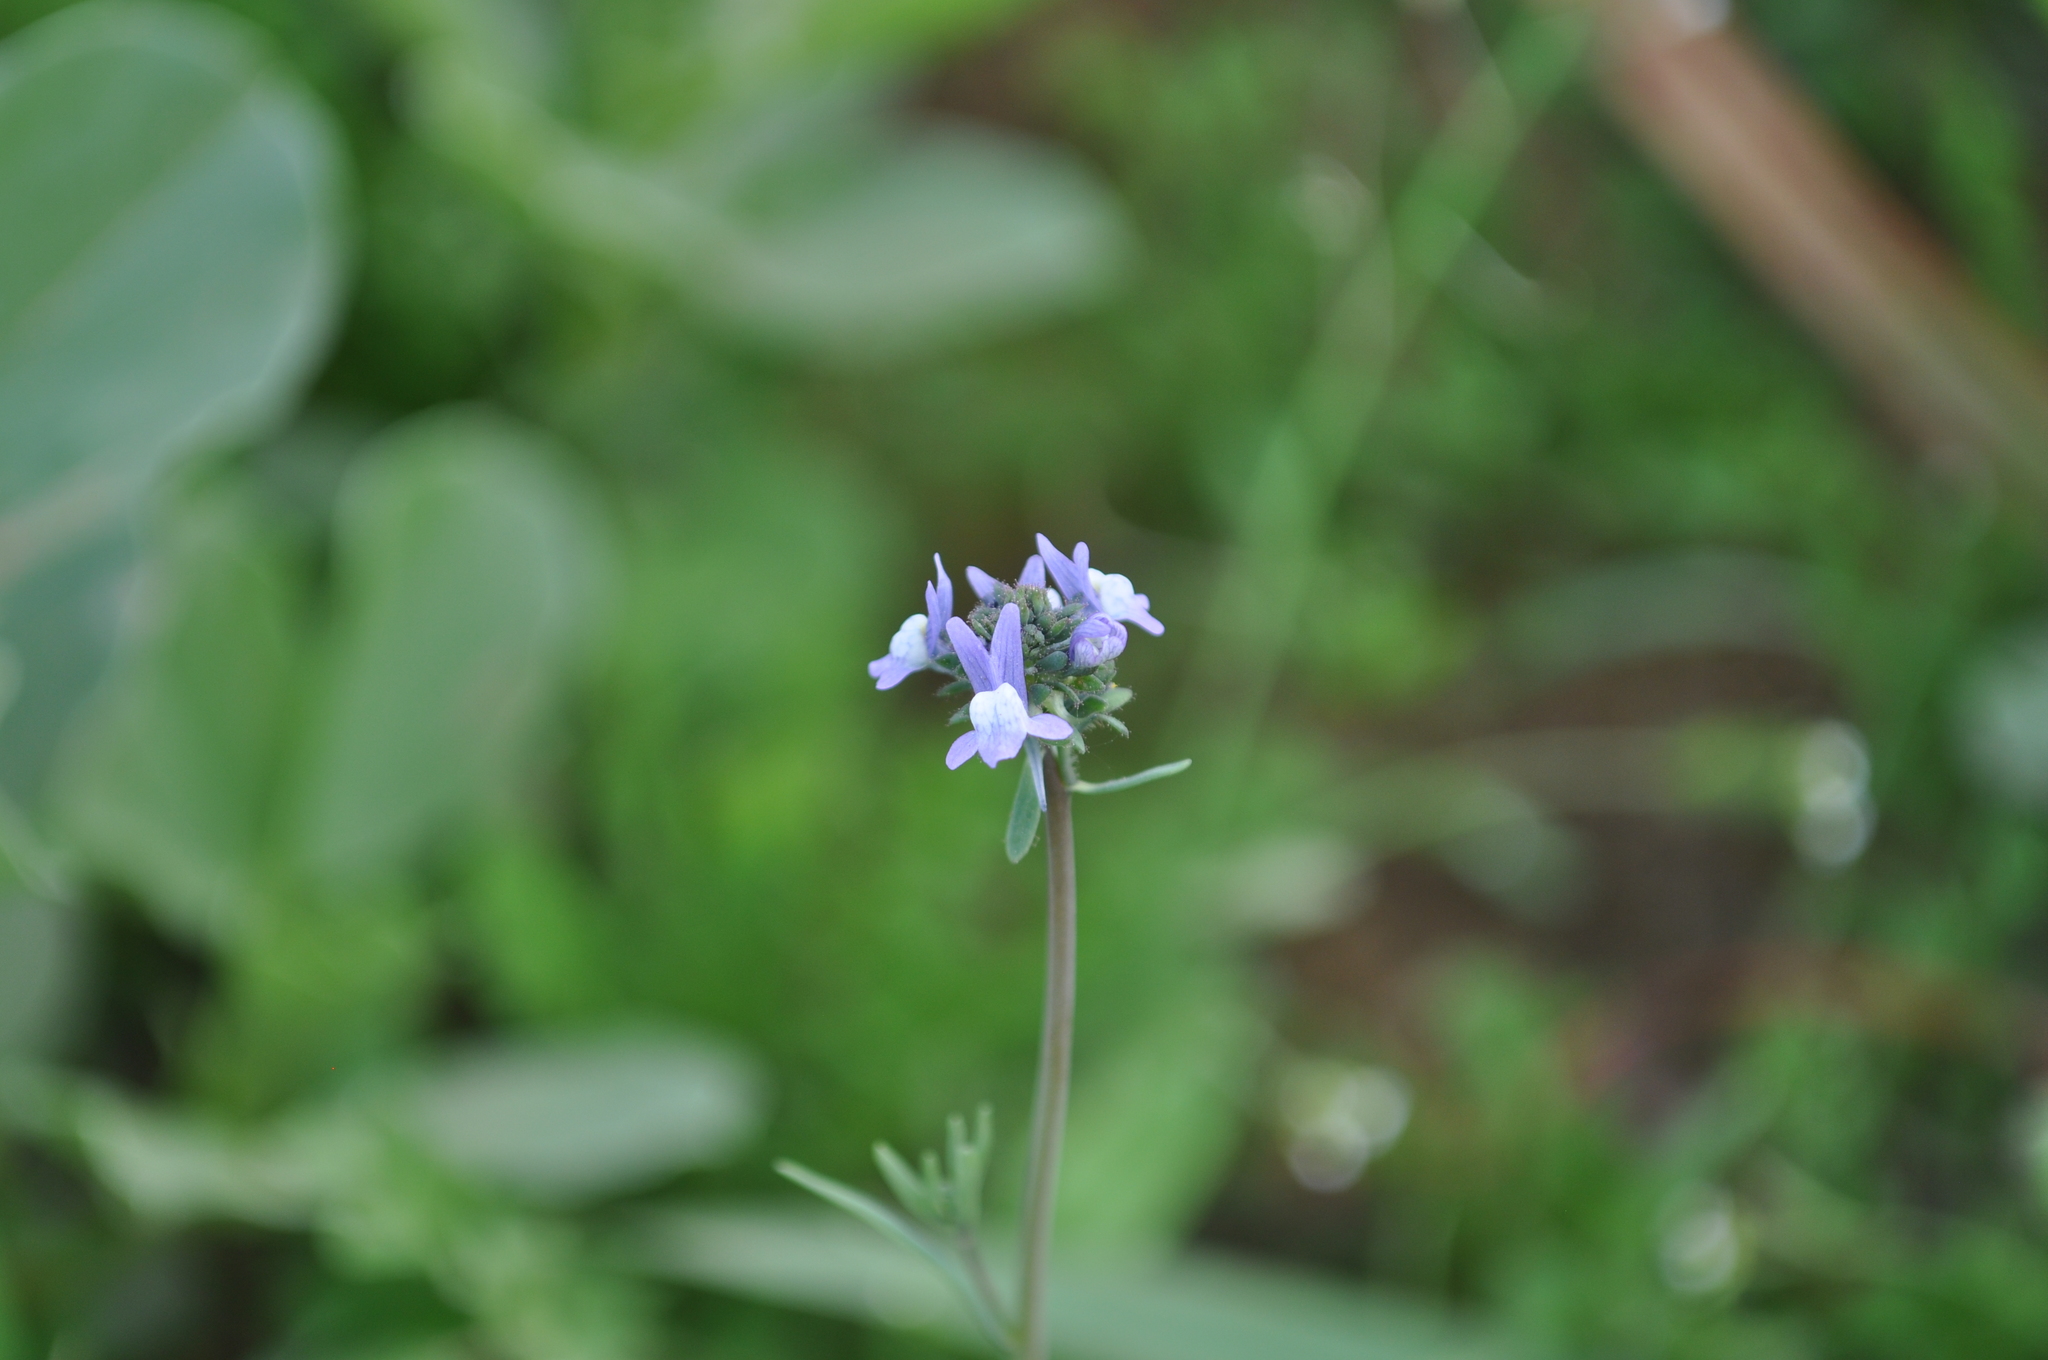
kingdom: Plantae
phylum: Tracheophyta
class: Magnoliopsida
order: Lamiales
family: Plantaginaceae
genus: Linaria
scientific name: Linaria arvensis
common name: Corn toadflax
